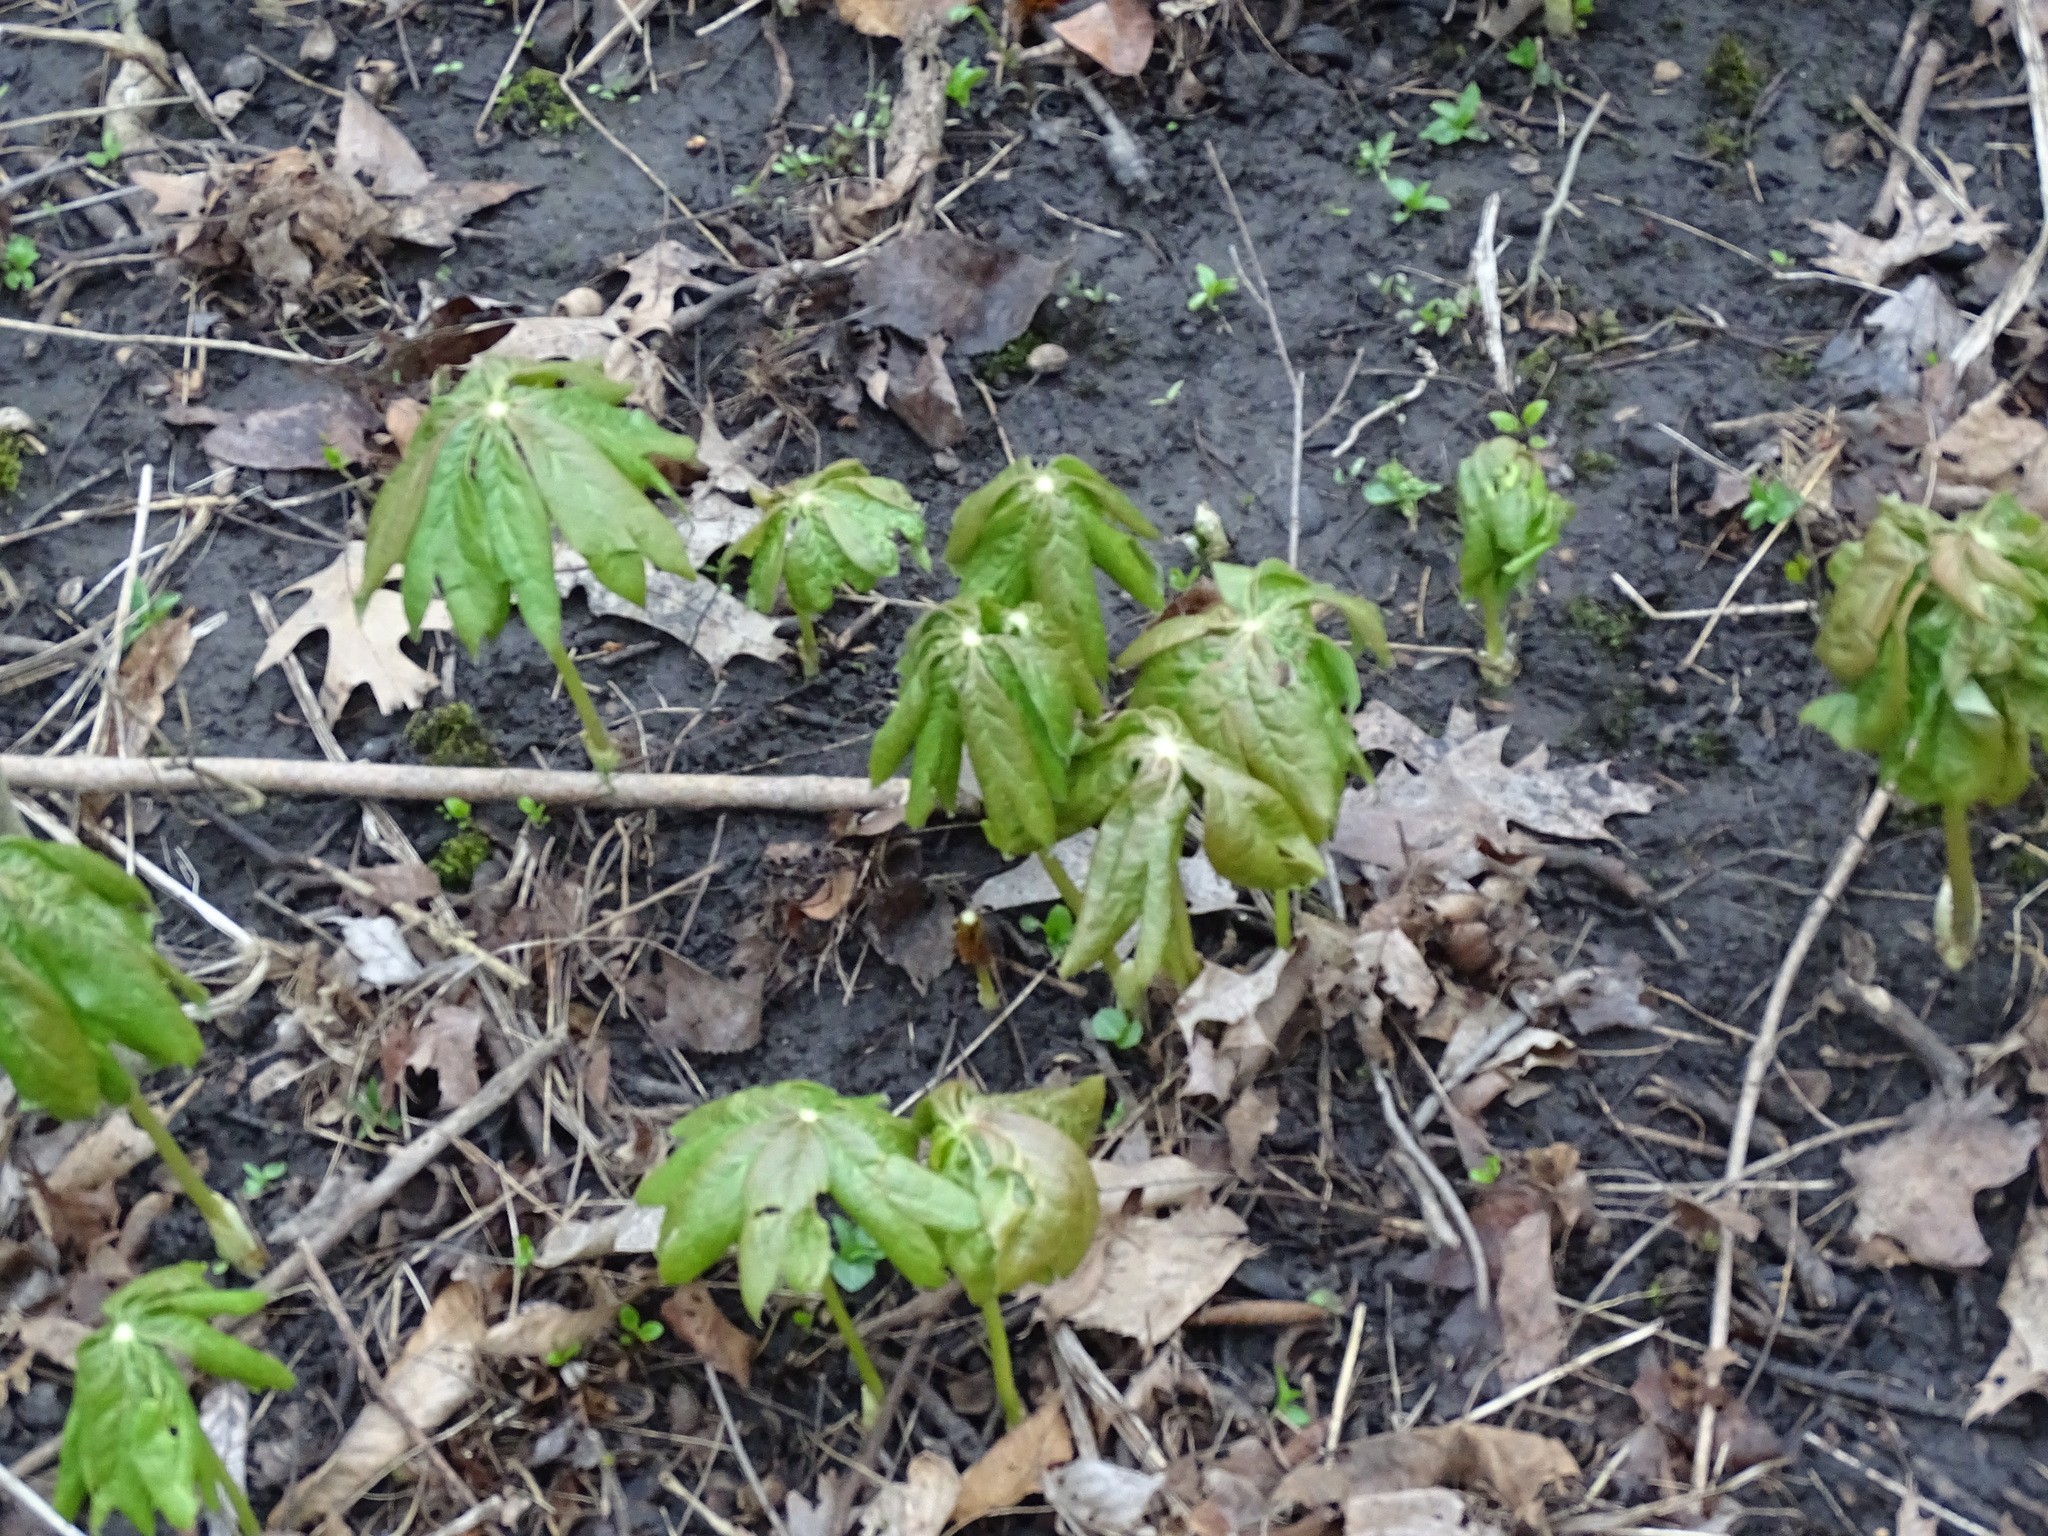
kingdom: Plantae
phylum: Tracheophyta
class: Magnoliopsida
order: Ranunculales
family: Berberidaceae
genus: Podophyllum
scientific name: Podophyllum peltatum
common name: Wild mandrake
